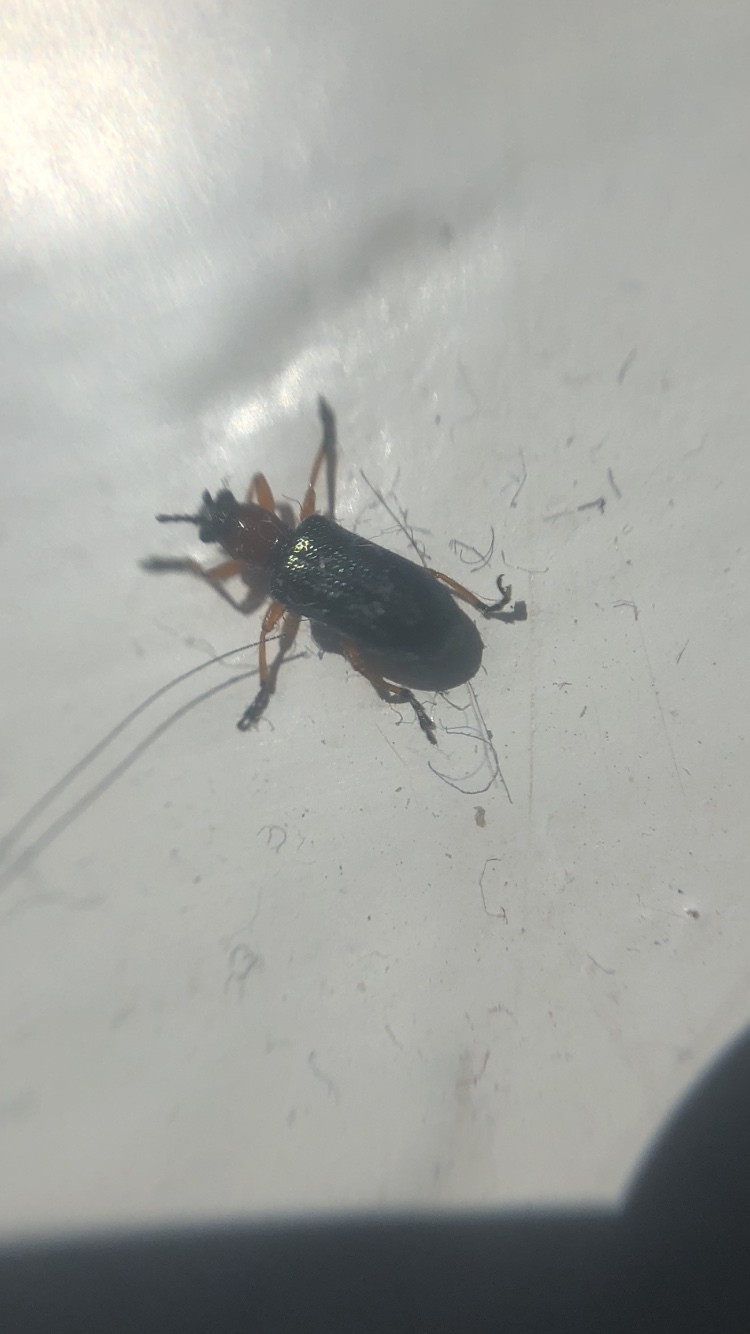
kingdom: Animalia
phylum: Arthropoda
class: Insecta
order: Coleoptera
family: Chrysomelidae
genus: Oulema
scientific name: Oulema
